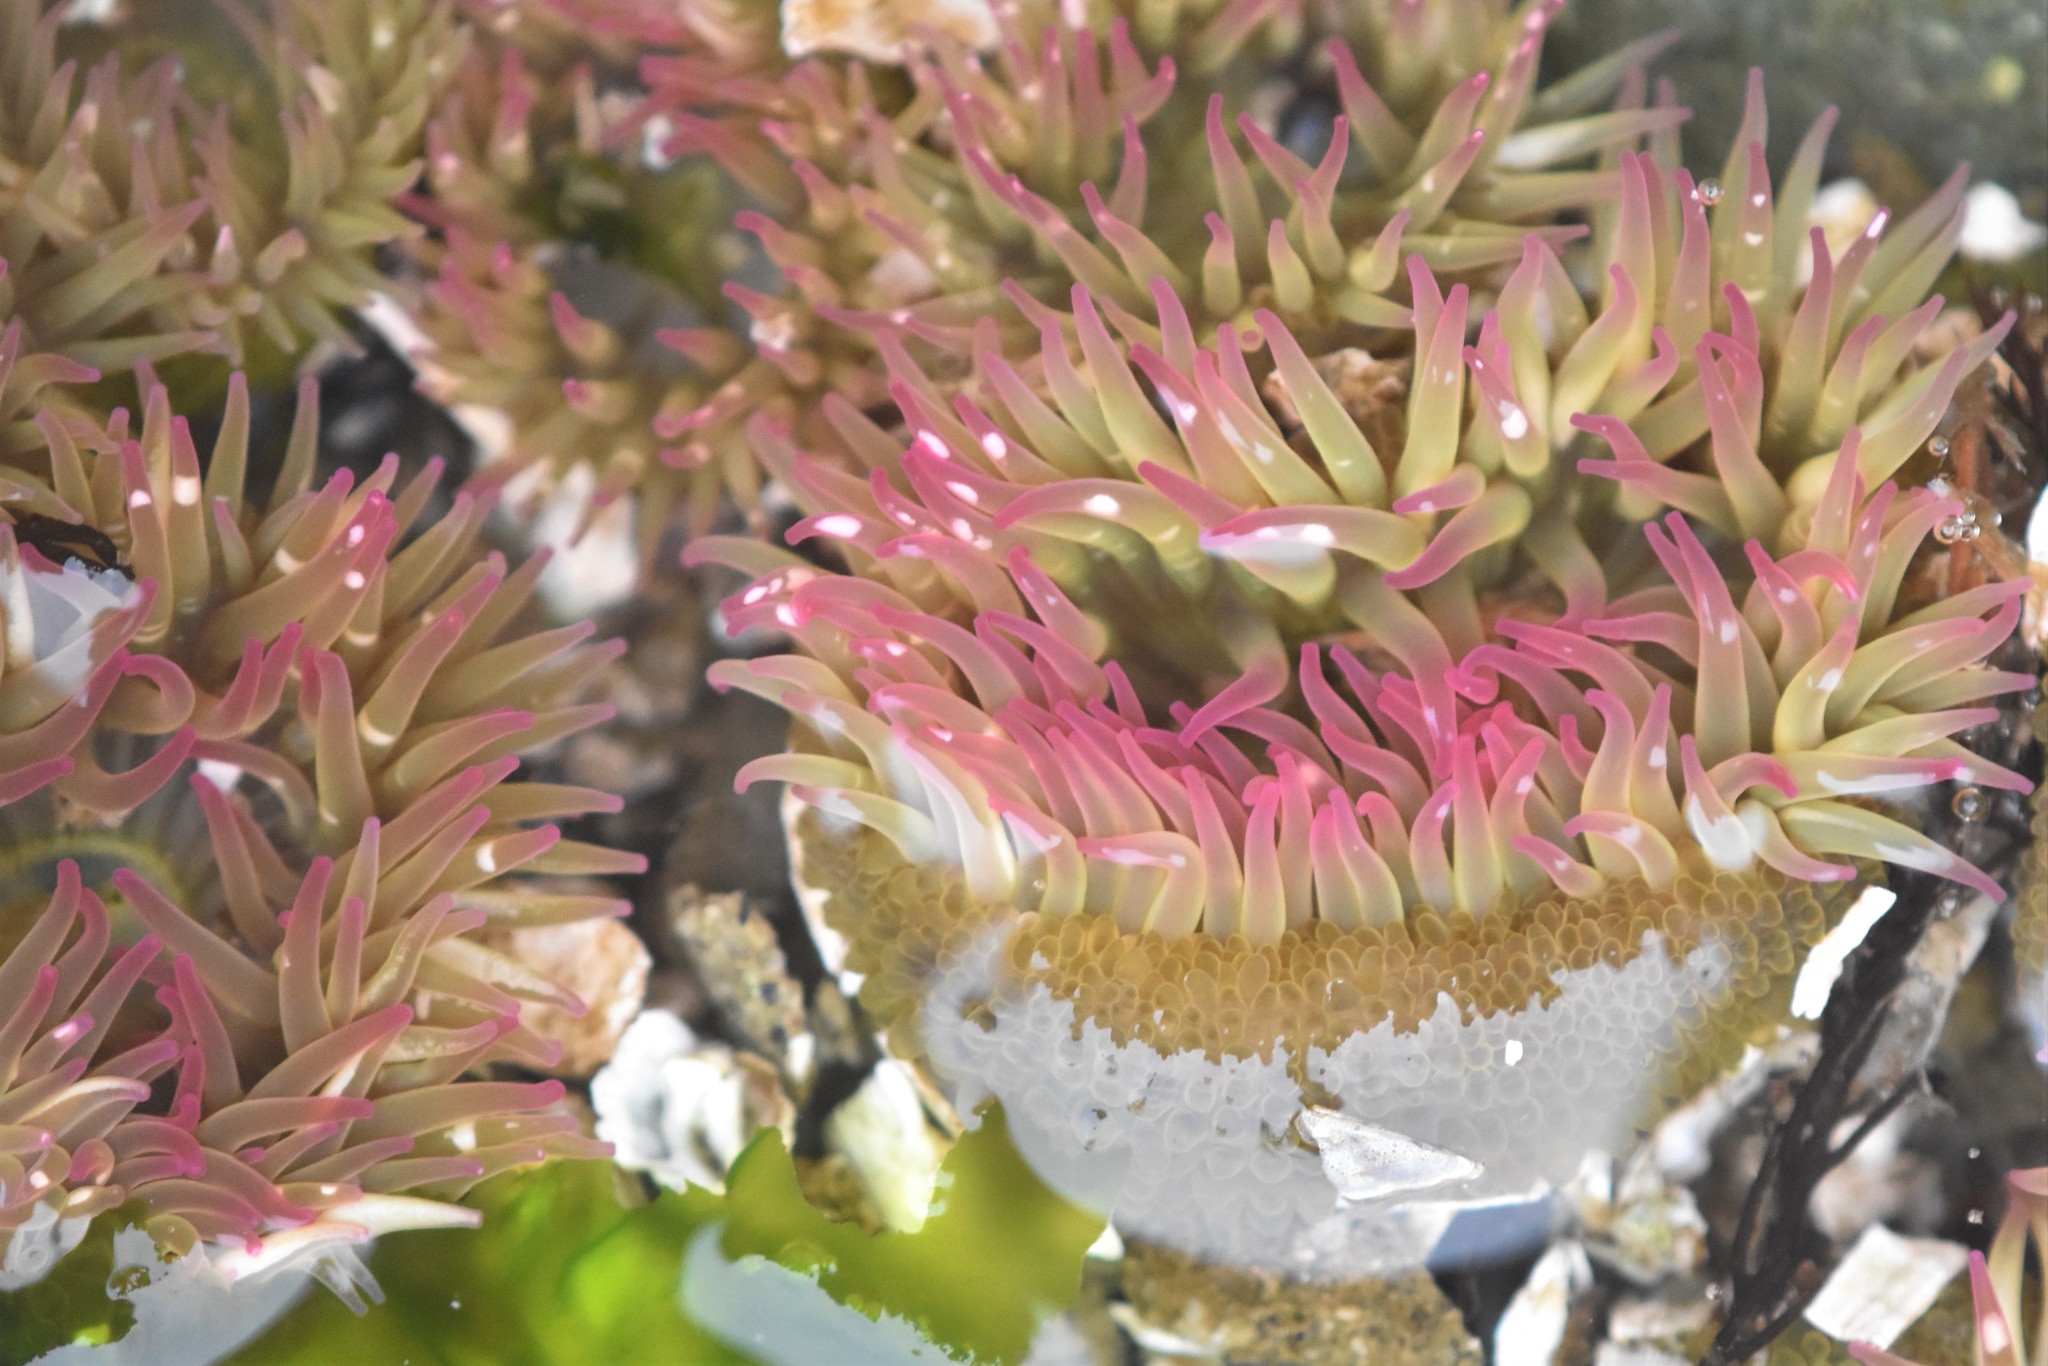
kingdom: Animalia
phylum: Cnidaria
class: Anthozoa
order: Actiniaria
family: Actiniidae
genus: Anthopleura
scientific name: Anthopleura elegantissima
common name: Clonal anemone
